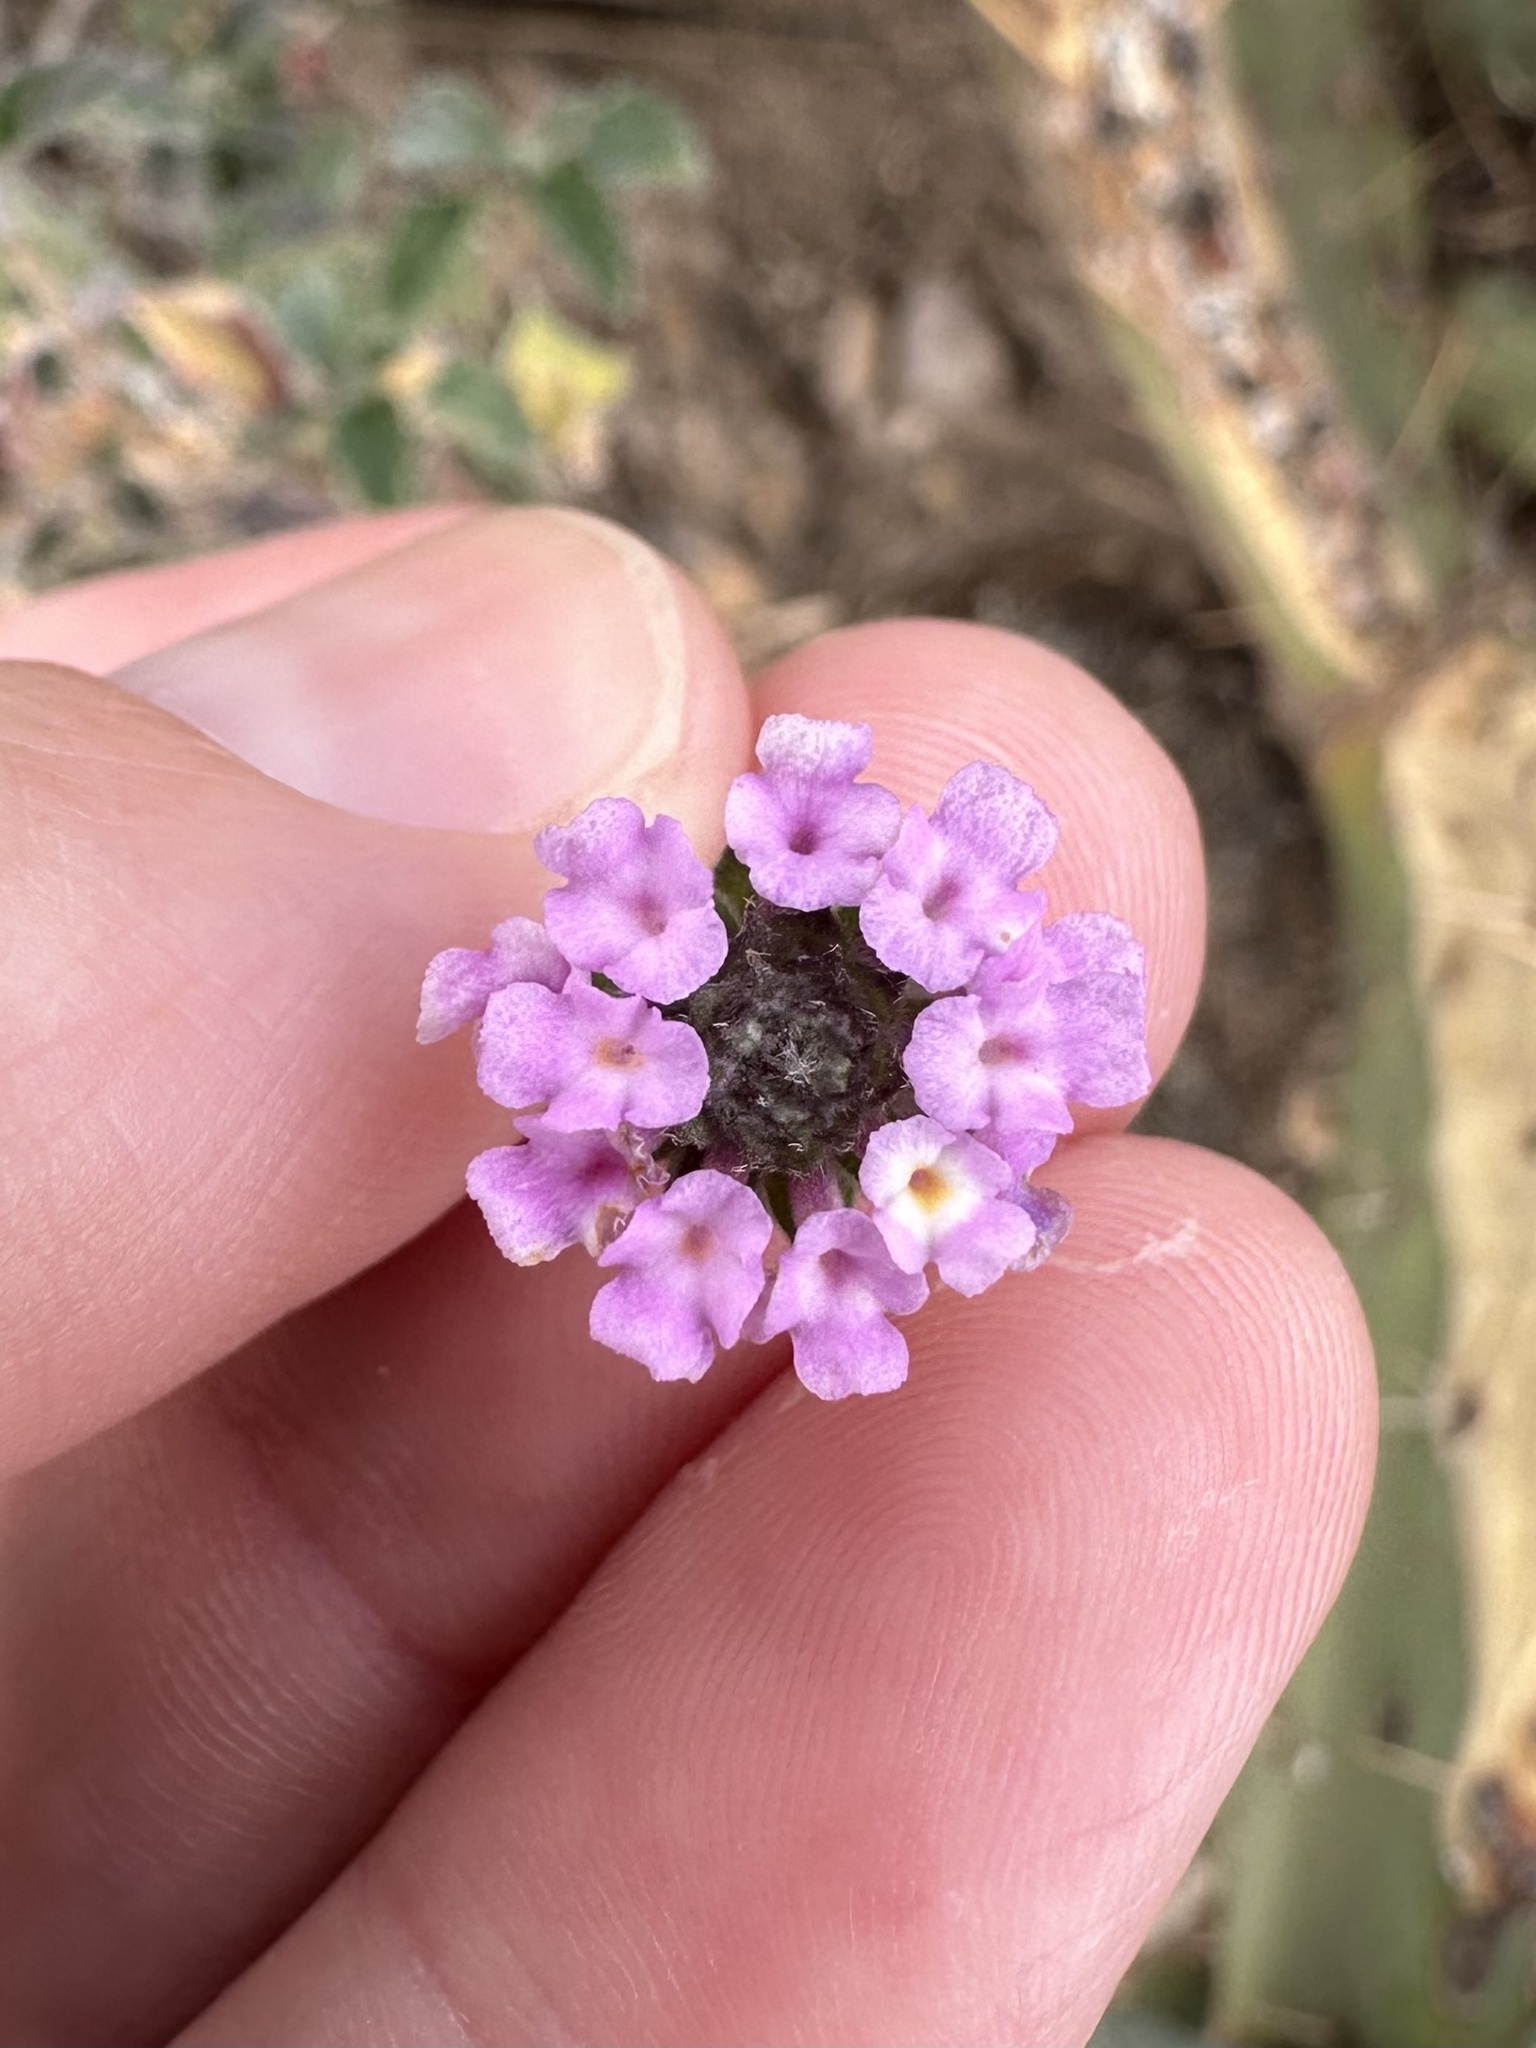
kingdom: Plantae
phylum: Tracheophyta
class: Magnoliopsida
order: Lamiales
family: Verbenaceae
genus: Lantana
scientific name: Lantana achyranthifolia
